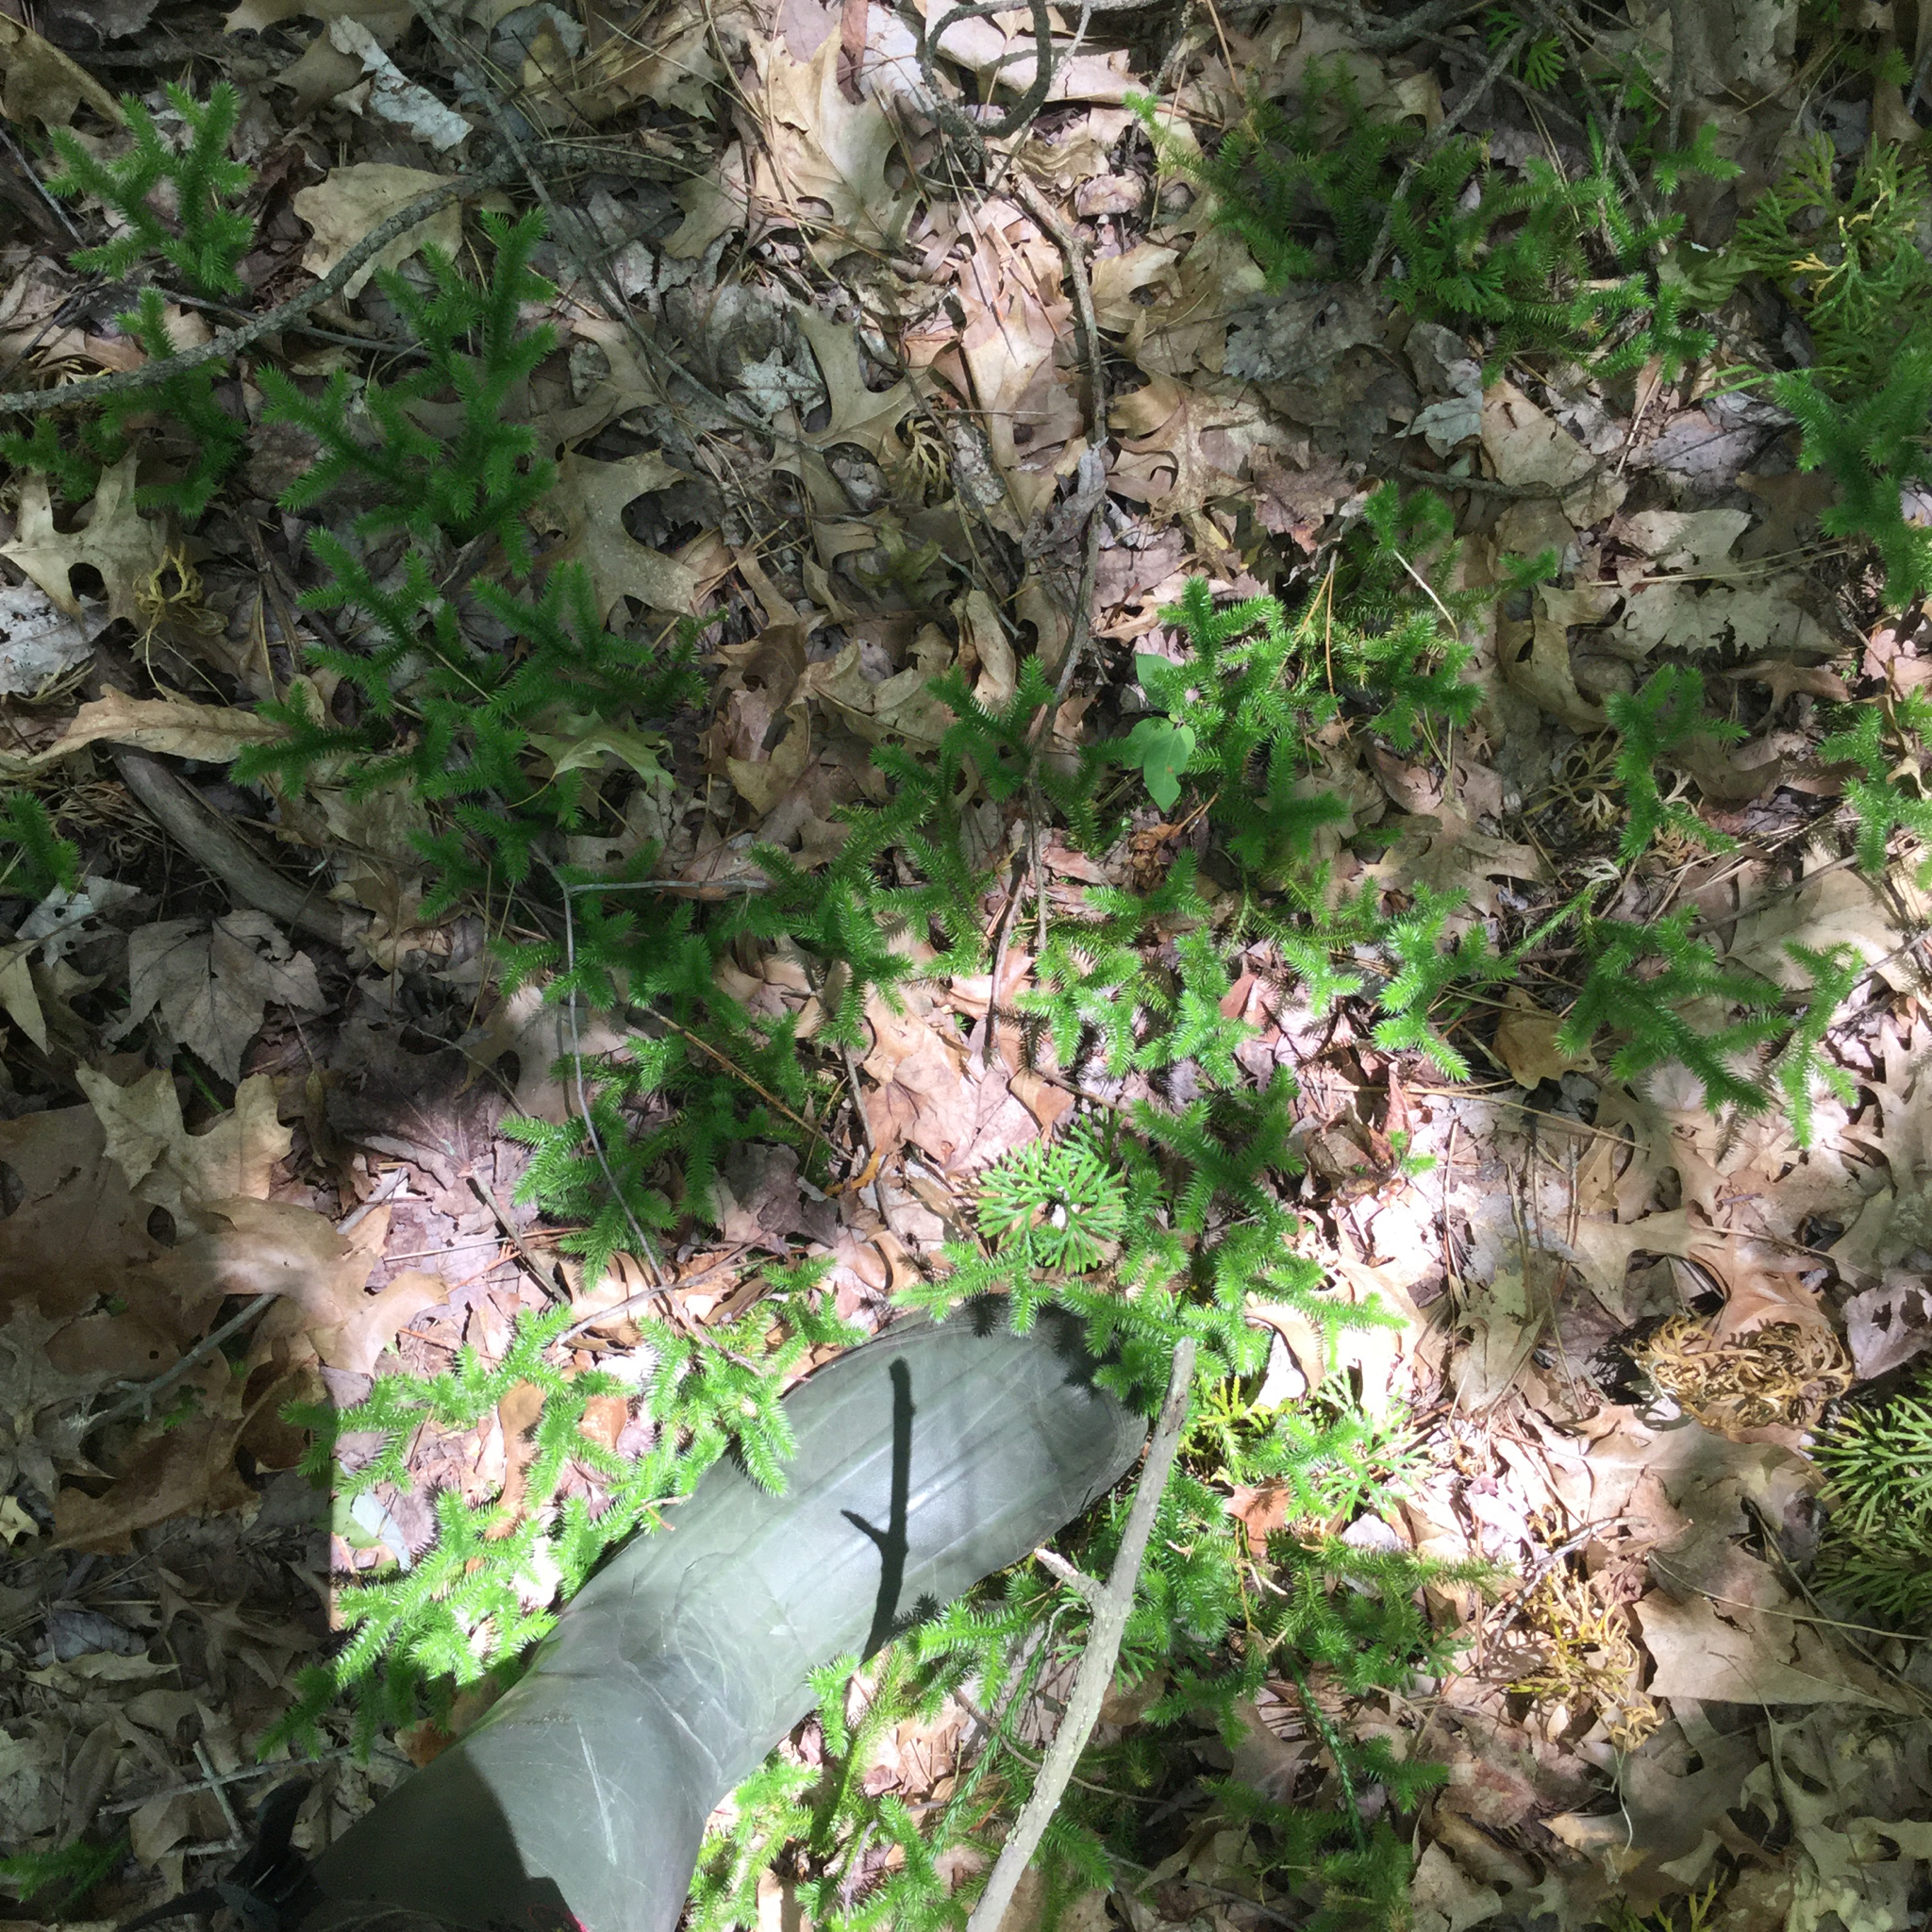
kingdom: Plantae
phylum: Tracheophyta
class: Lycopodiopsida
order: Lycopodiales
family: Lycopodiaceae
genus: Lycopodium
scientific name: Lycopodium clavatum
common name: Stag's-horn clubmoss
